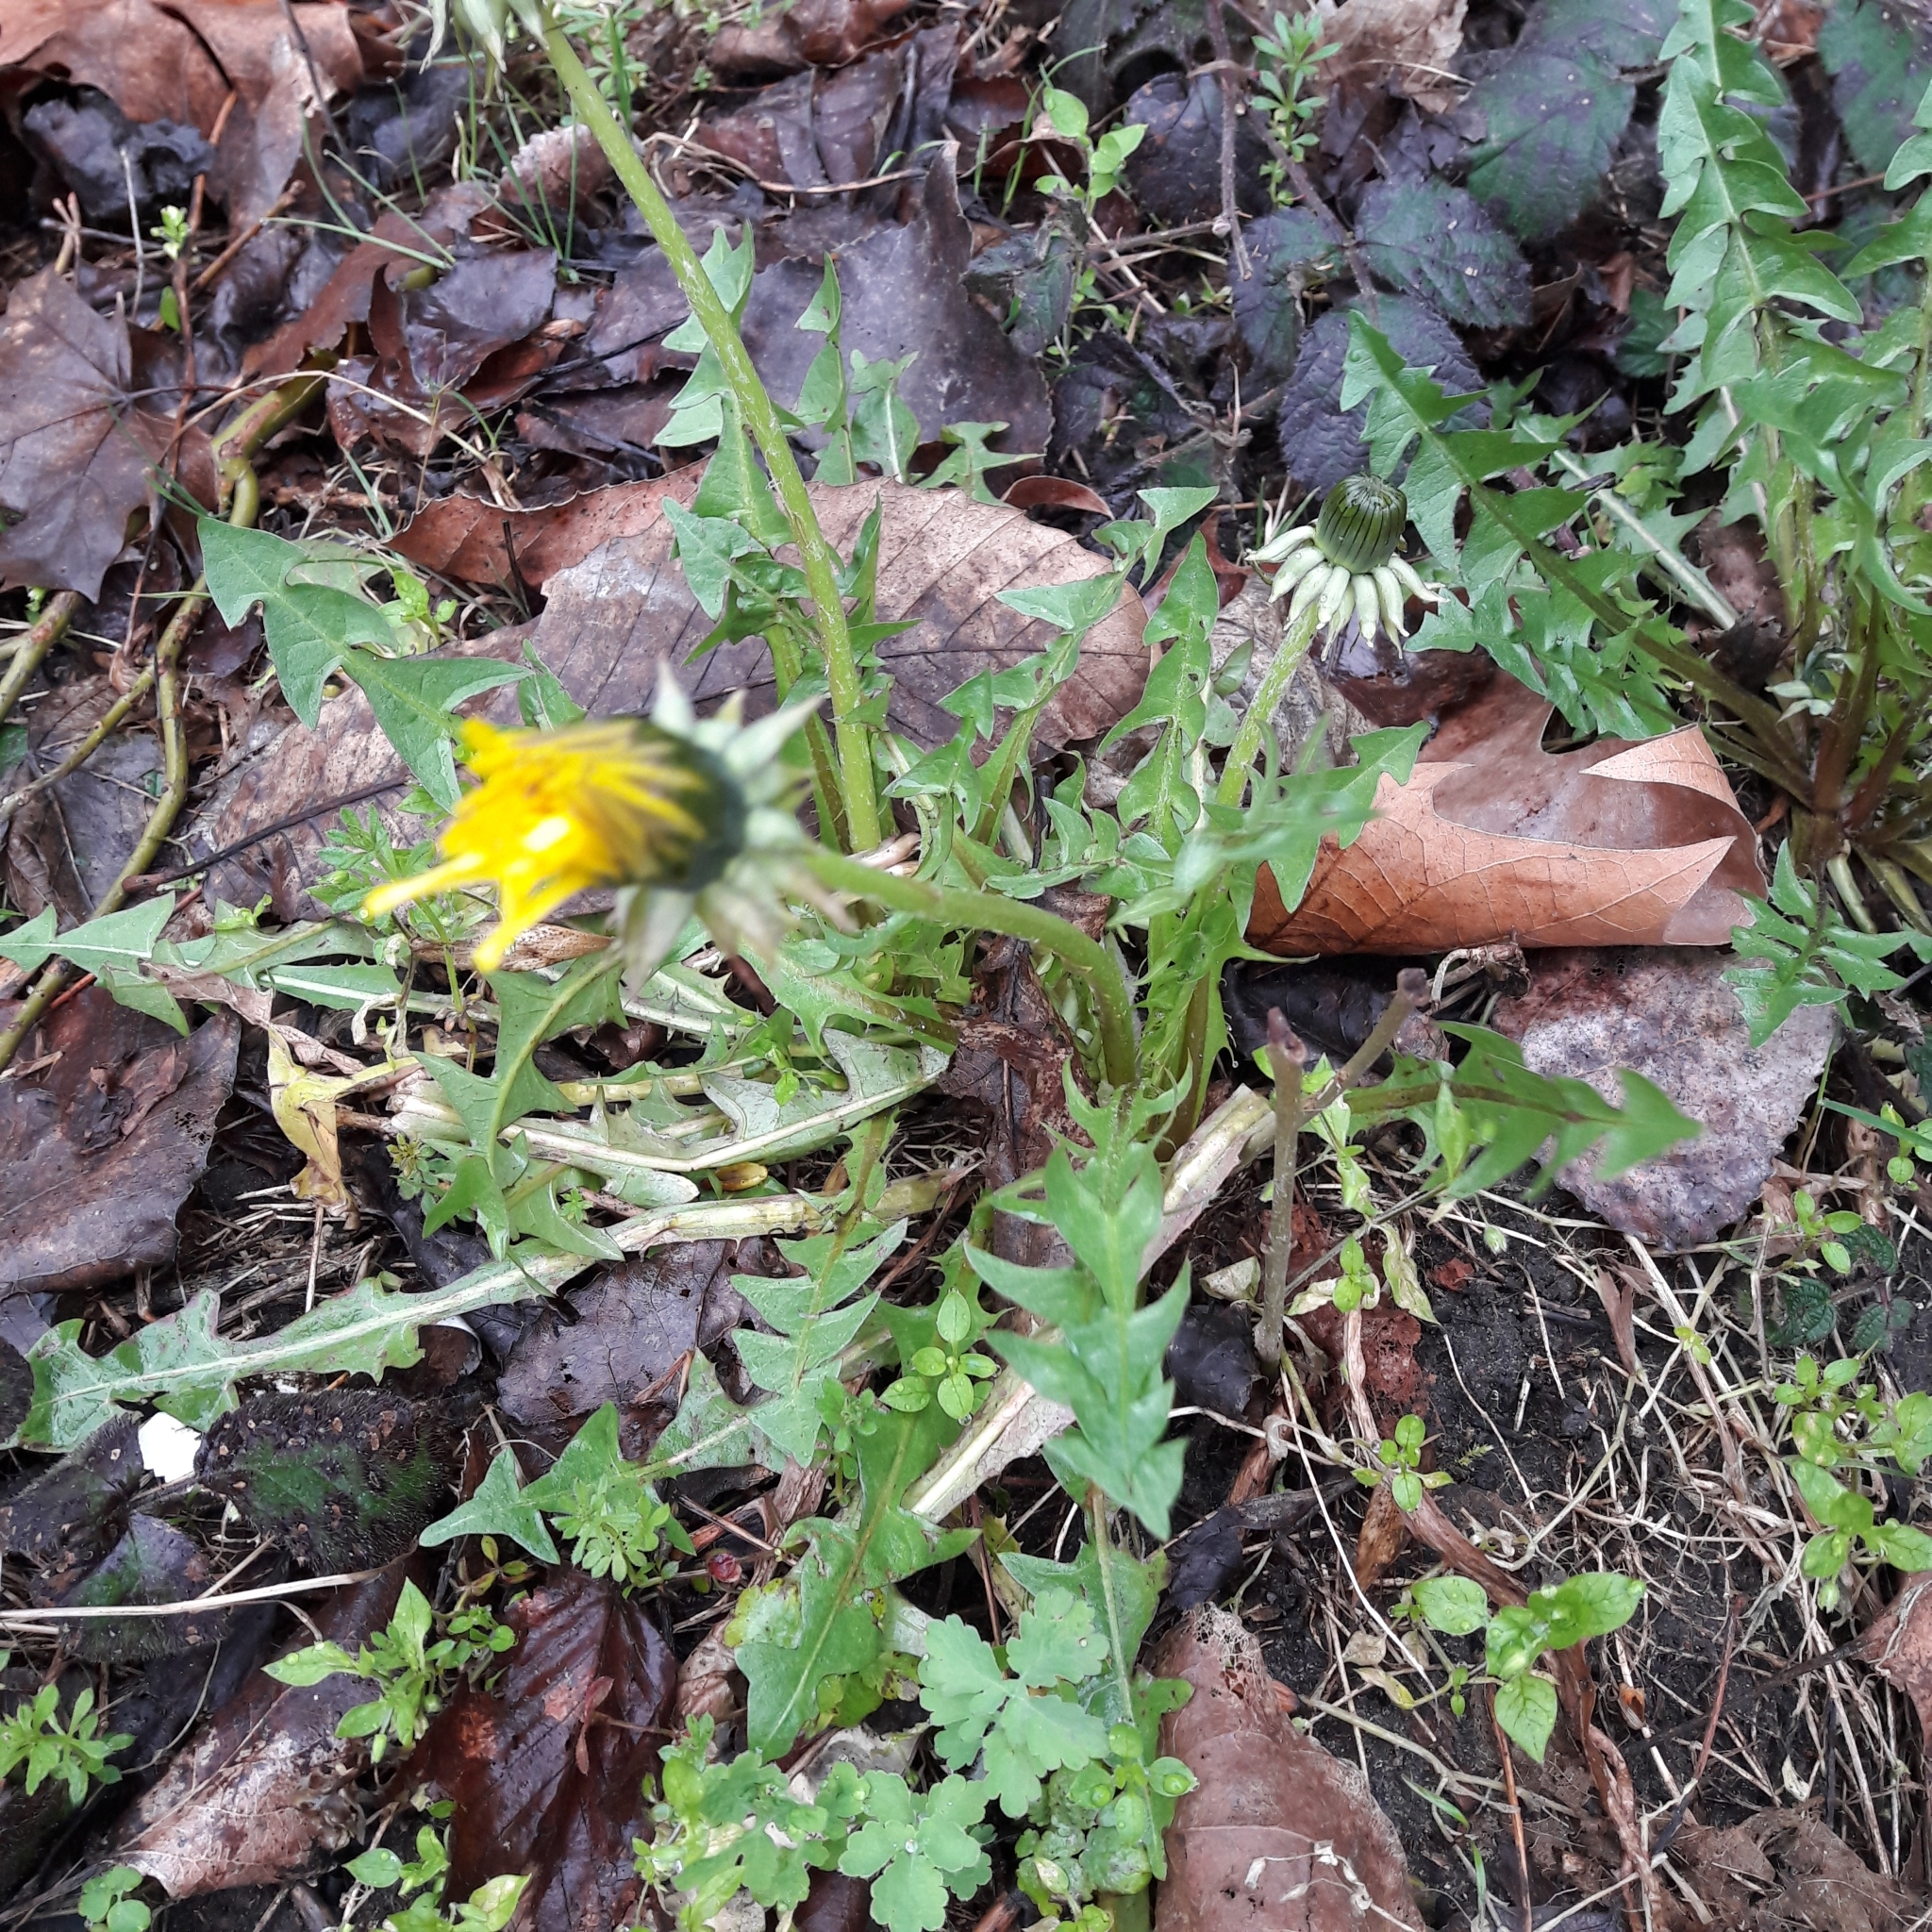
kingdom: Plantae
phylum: Tracheophyta
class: Magnoliopsida
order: Asterales
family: Asteraceae
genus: Taraxacum
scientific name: Taraxacum officinale
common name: Common dandelion
